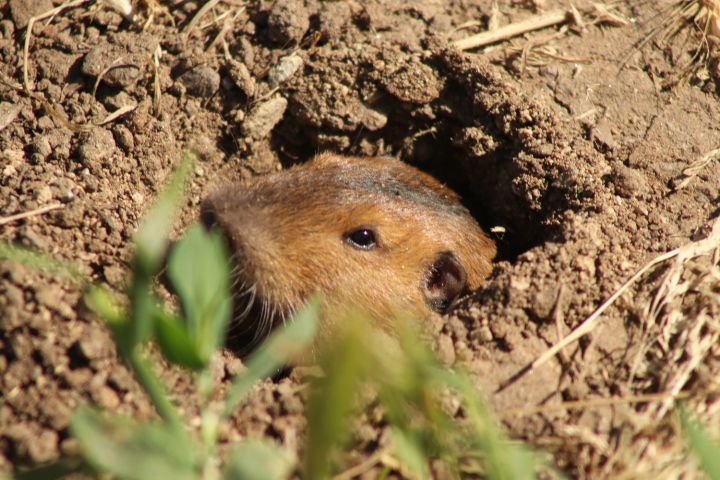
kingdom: Animalia
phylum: Chordata
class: Mammalia
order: Rodentia
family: Geomyidae
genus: Thomomys
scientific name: Thomomys bottae
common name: Botta's pocket gopher
